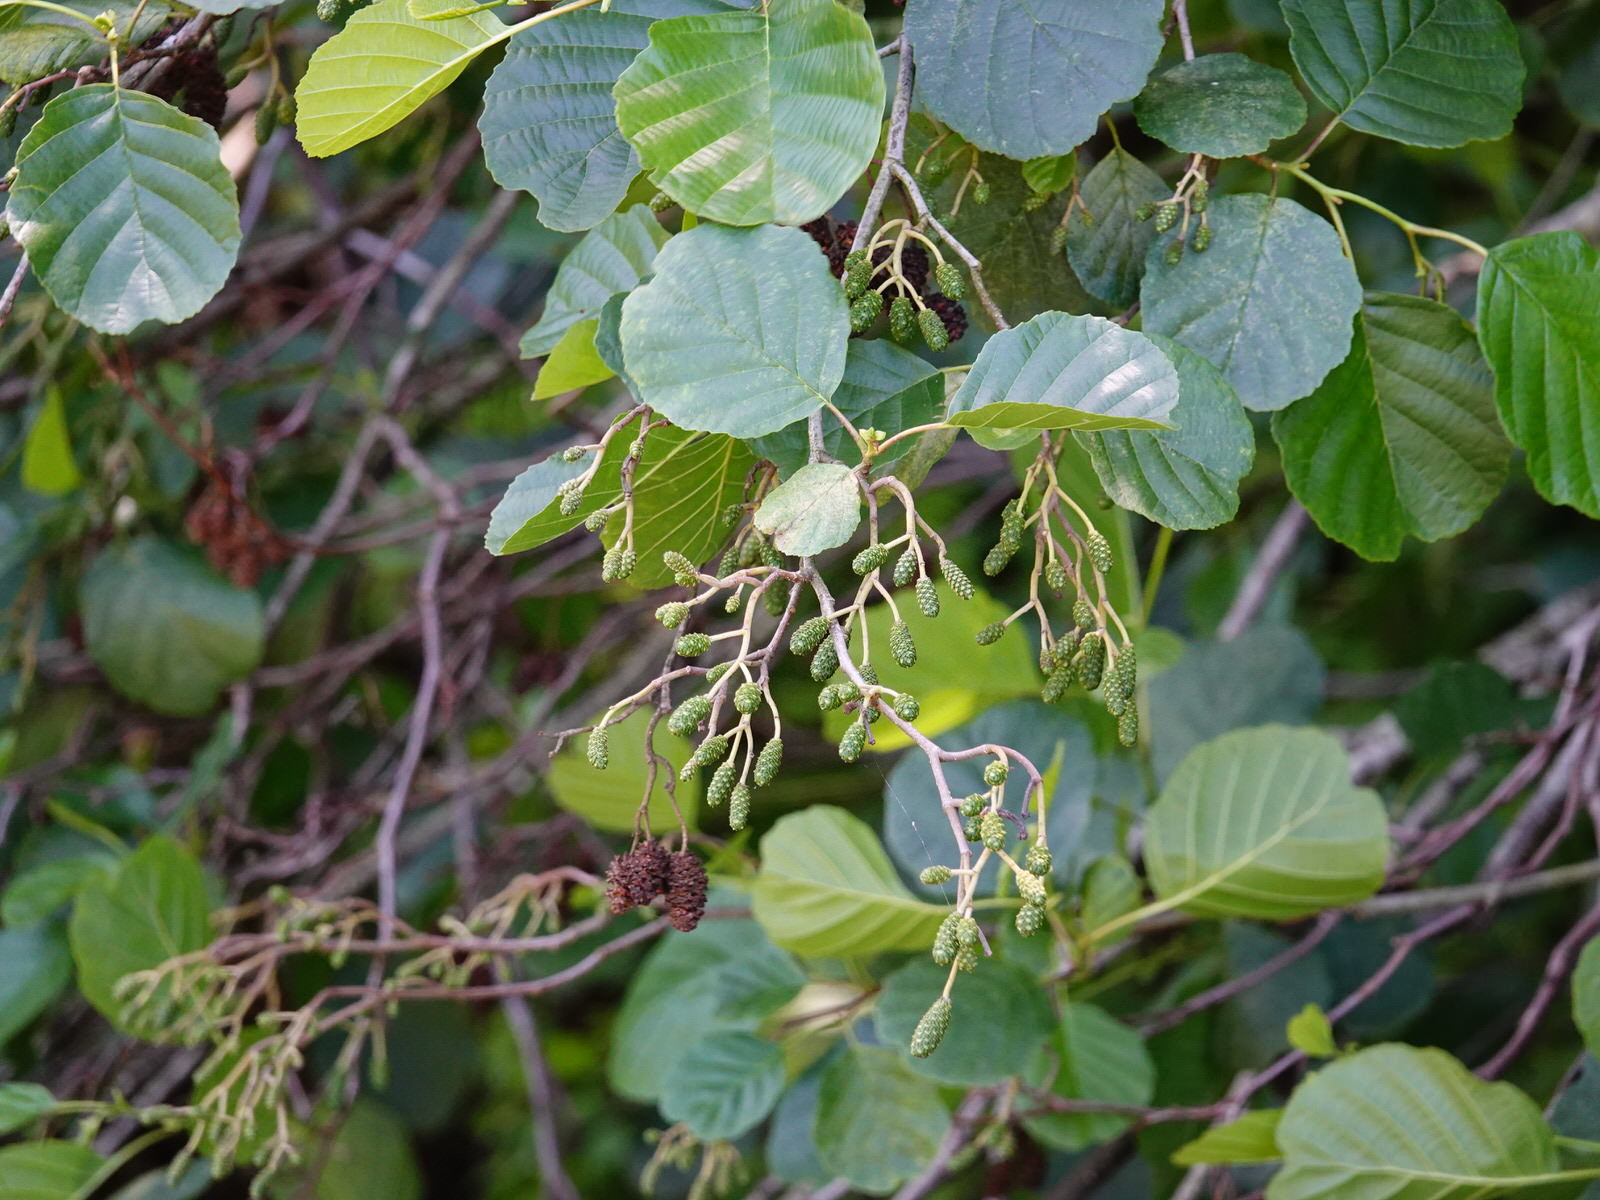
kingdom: Plantae
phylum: Tracheophyta
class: Magnoliopsida
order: Fagales
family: Betulaceae
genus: Alnus
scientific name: Alnus glutinosa
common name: Black alder
